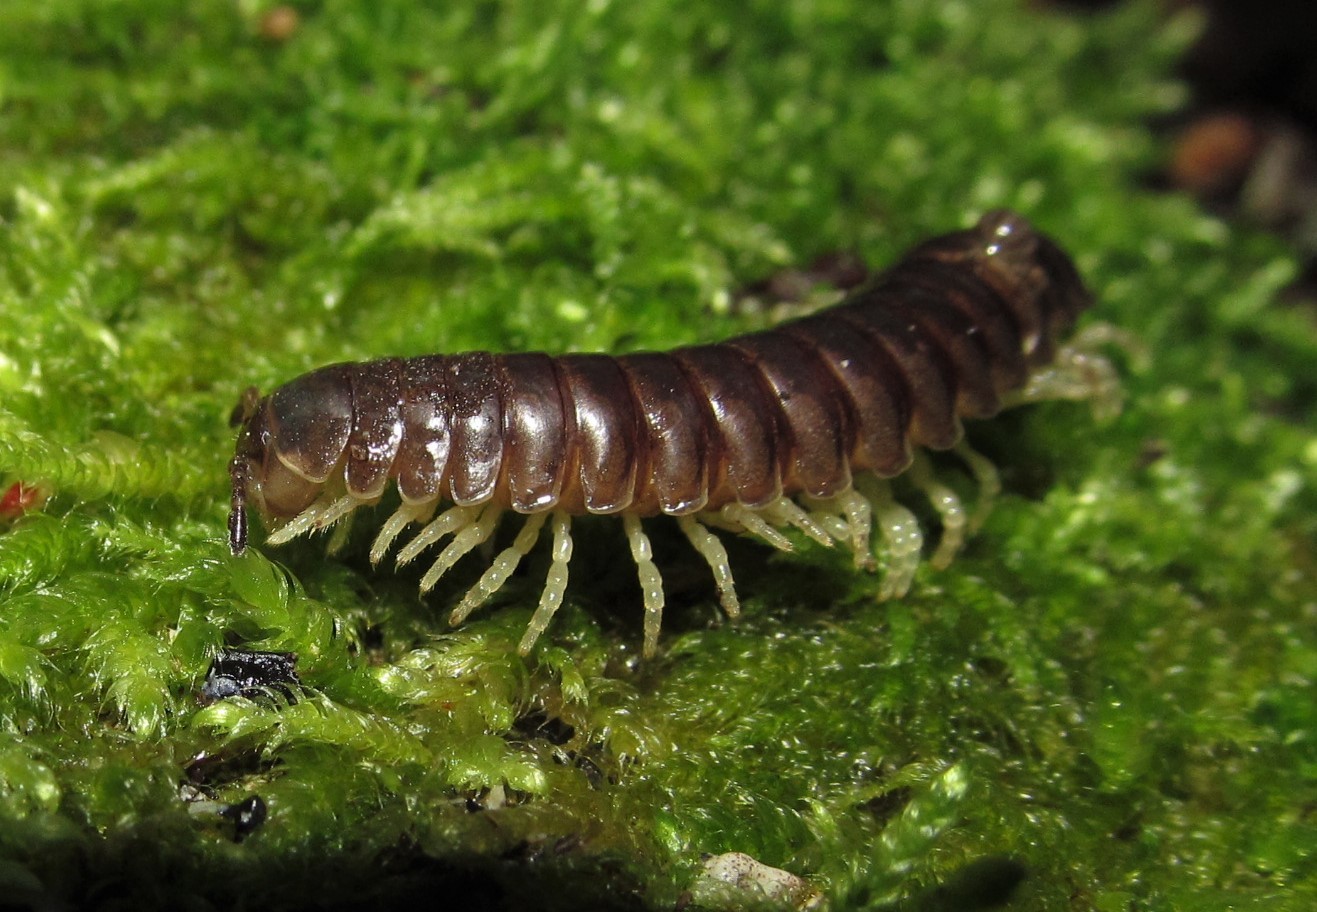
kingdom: Animalia
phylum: Arthropoda
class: Diplopoda
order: Polydesmida
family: Xystodesmidae
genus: Thrinaphe
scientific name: Thrinaphe hargeri
